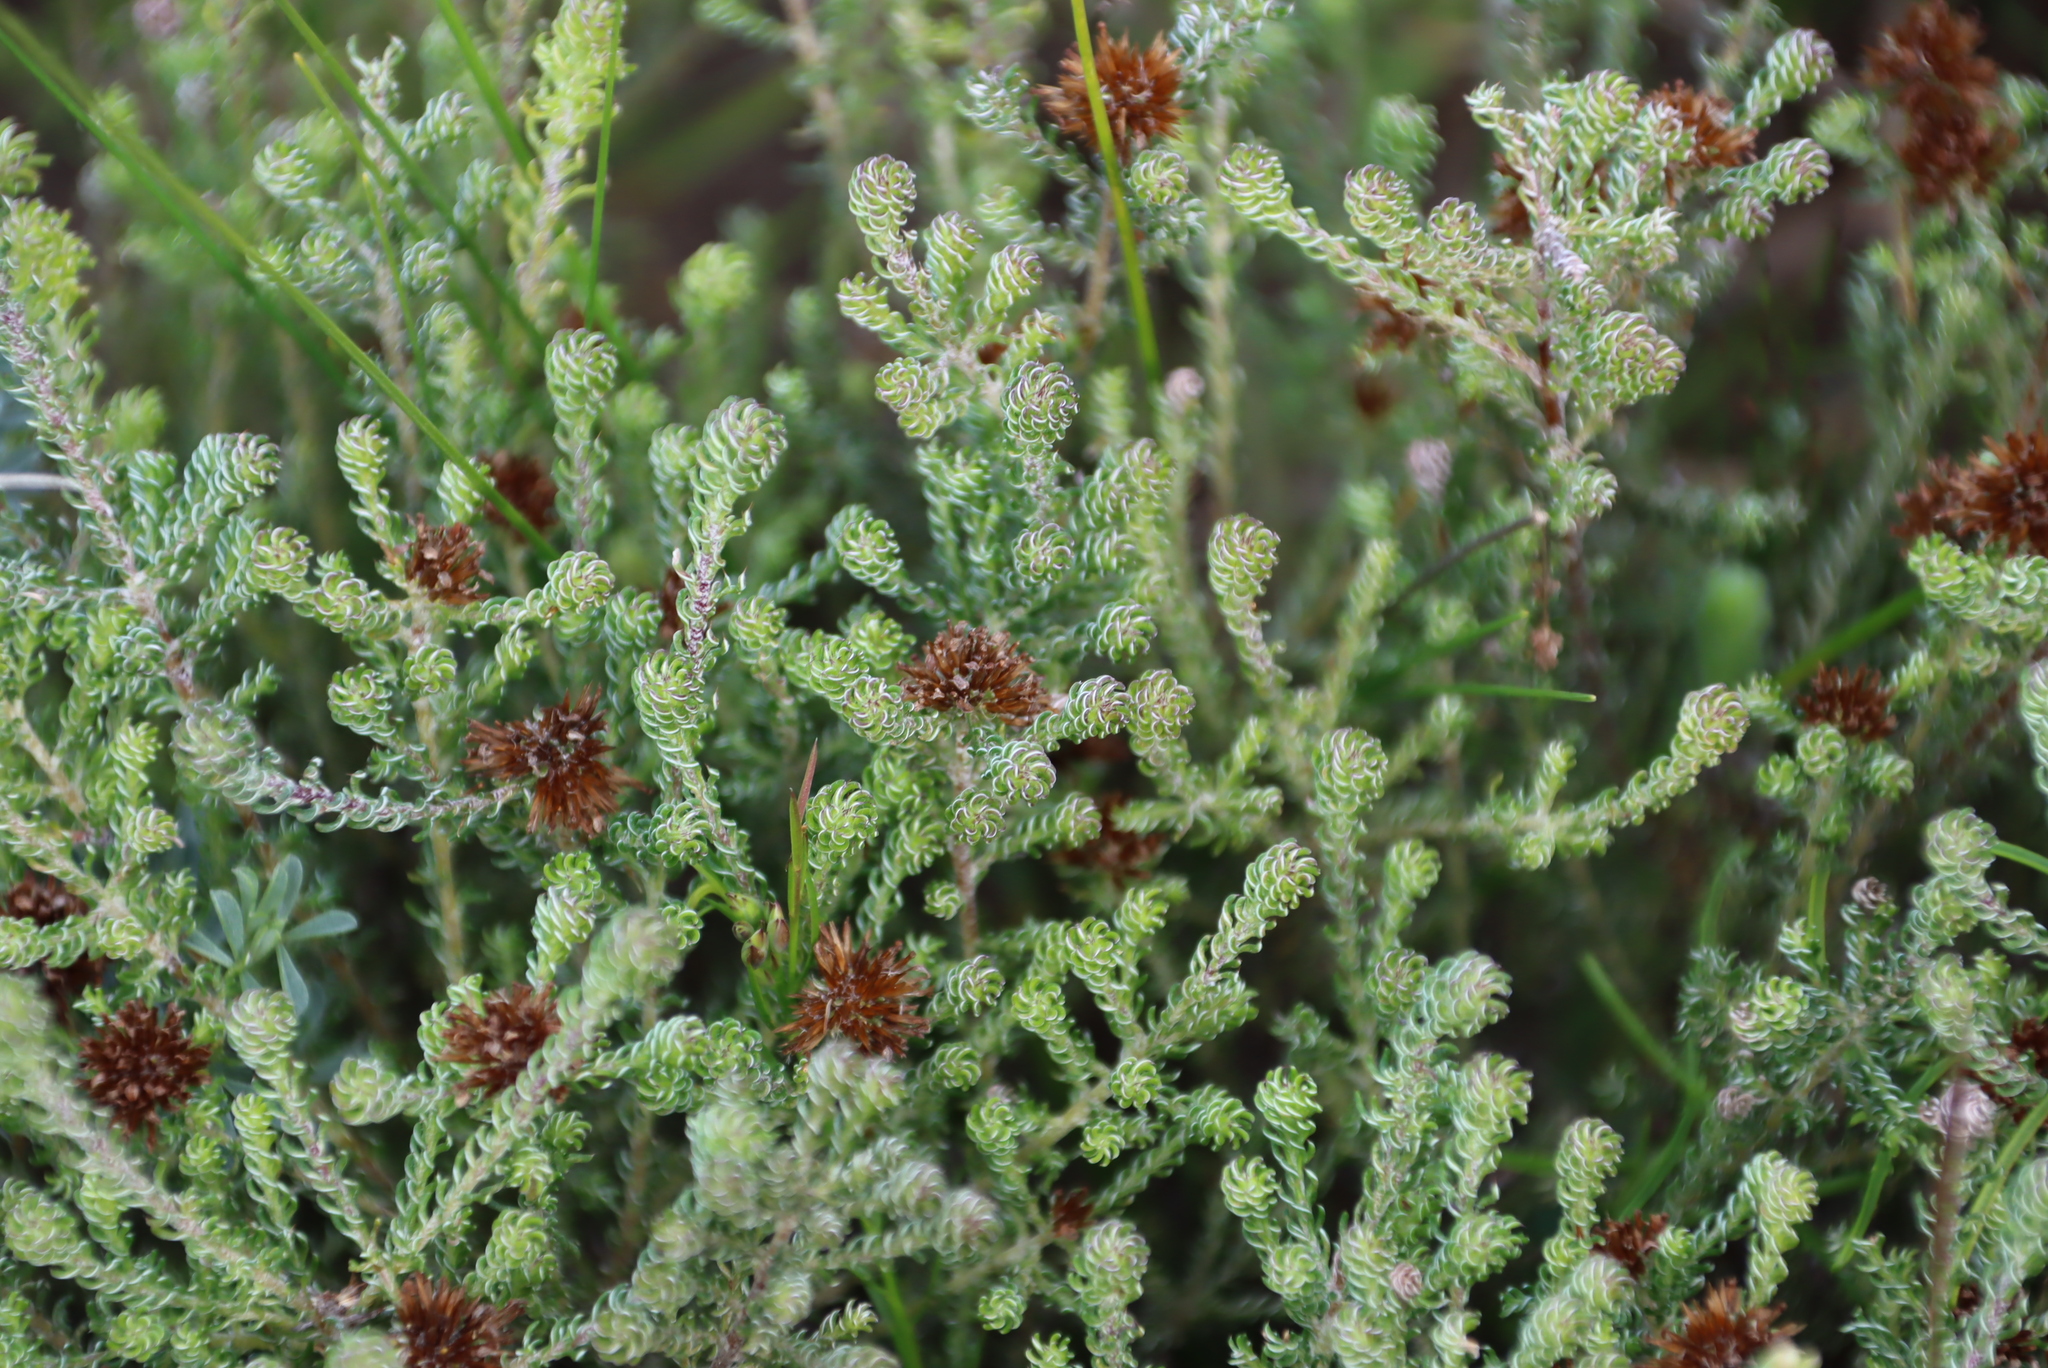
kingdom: Plantae
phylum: Tracheophyta
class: Magnoliopsida
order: Asterales
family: Asteraceae
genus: Disparago
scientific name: Disparago anomala
